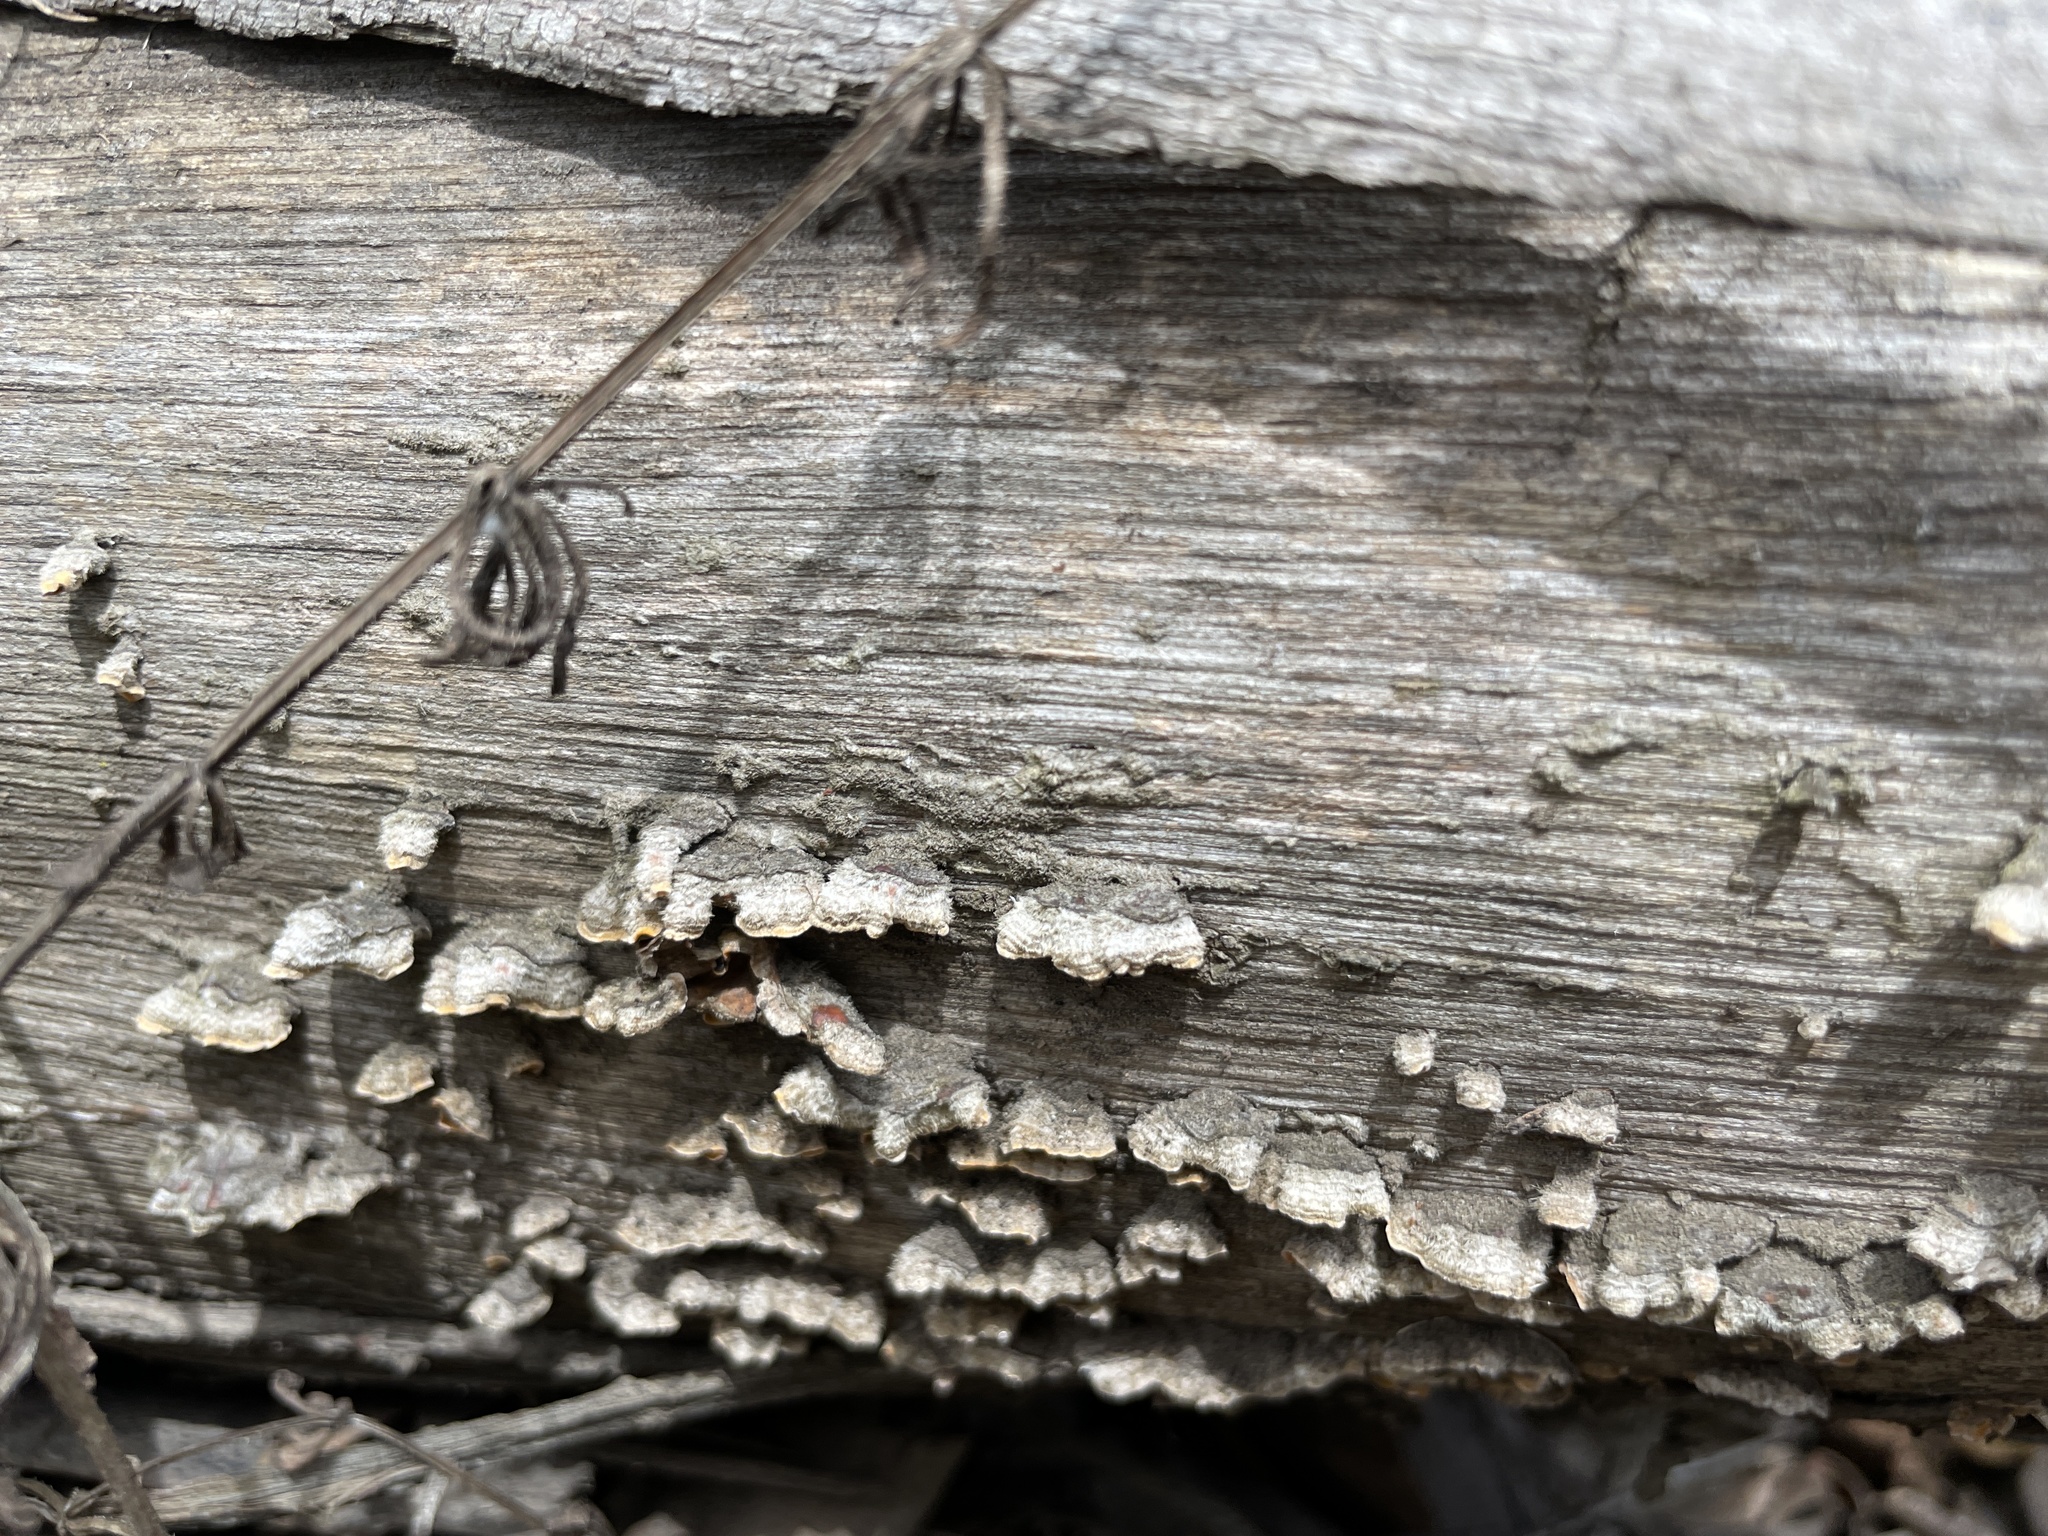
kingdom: Fungi
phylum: Basidiomycota
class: Agaricomycetes
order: Russulales
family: Stereaceae
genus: Stereum
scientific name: Stereum hirsutum
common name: Hairy curtain crust
